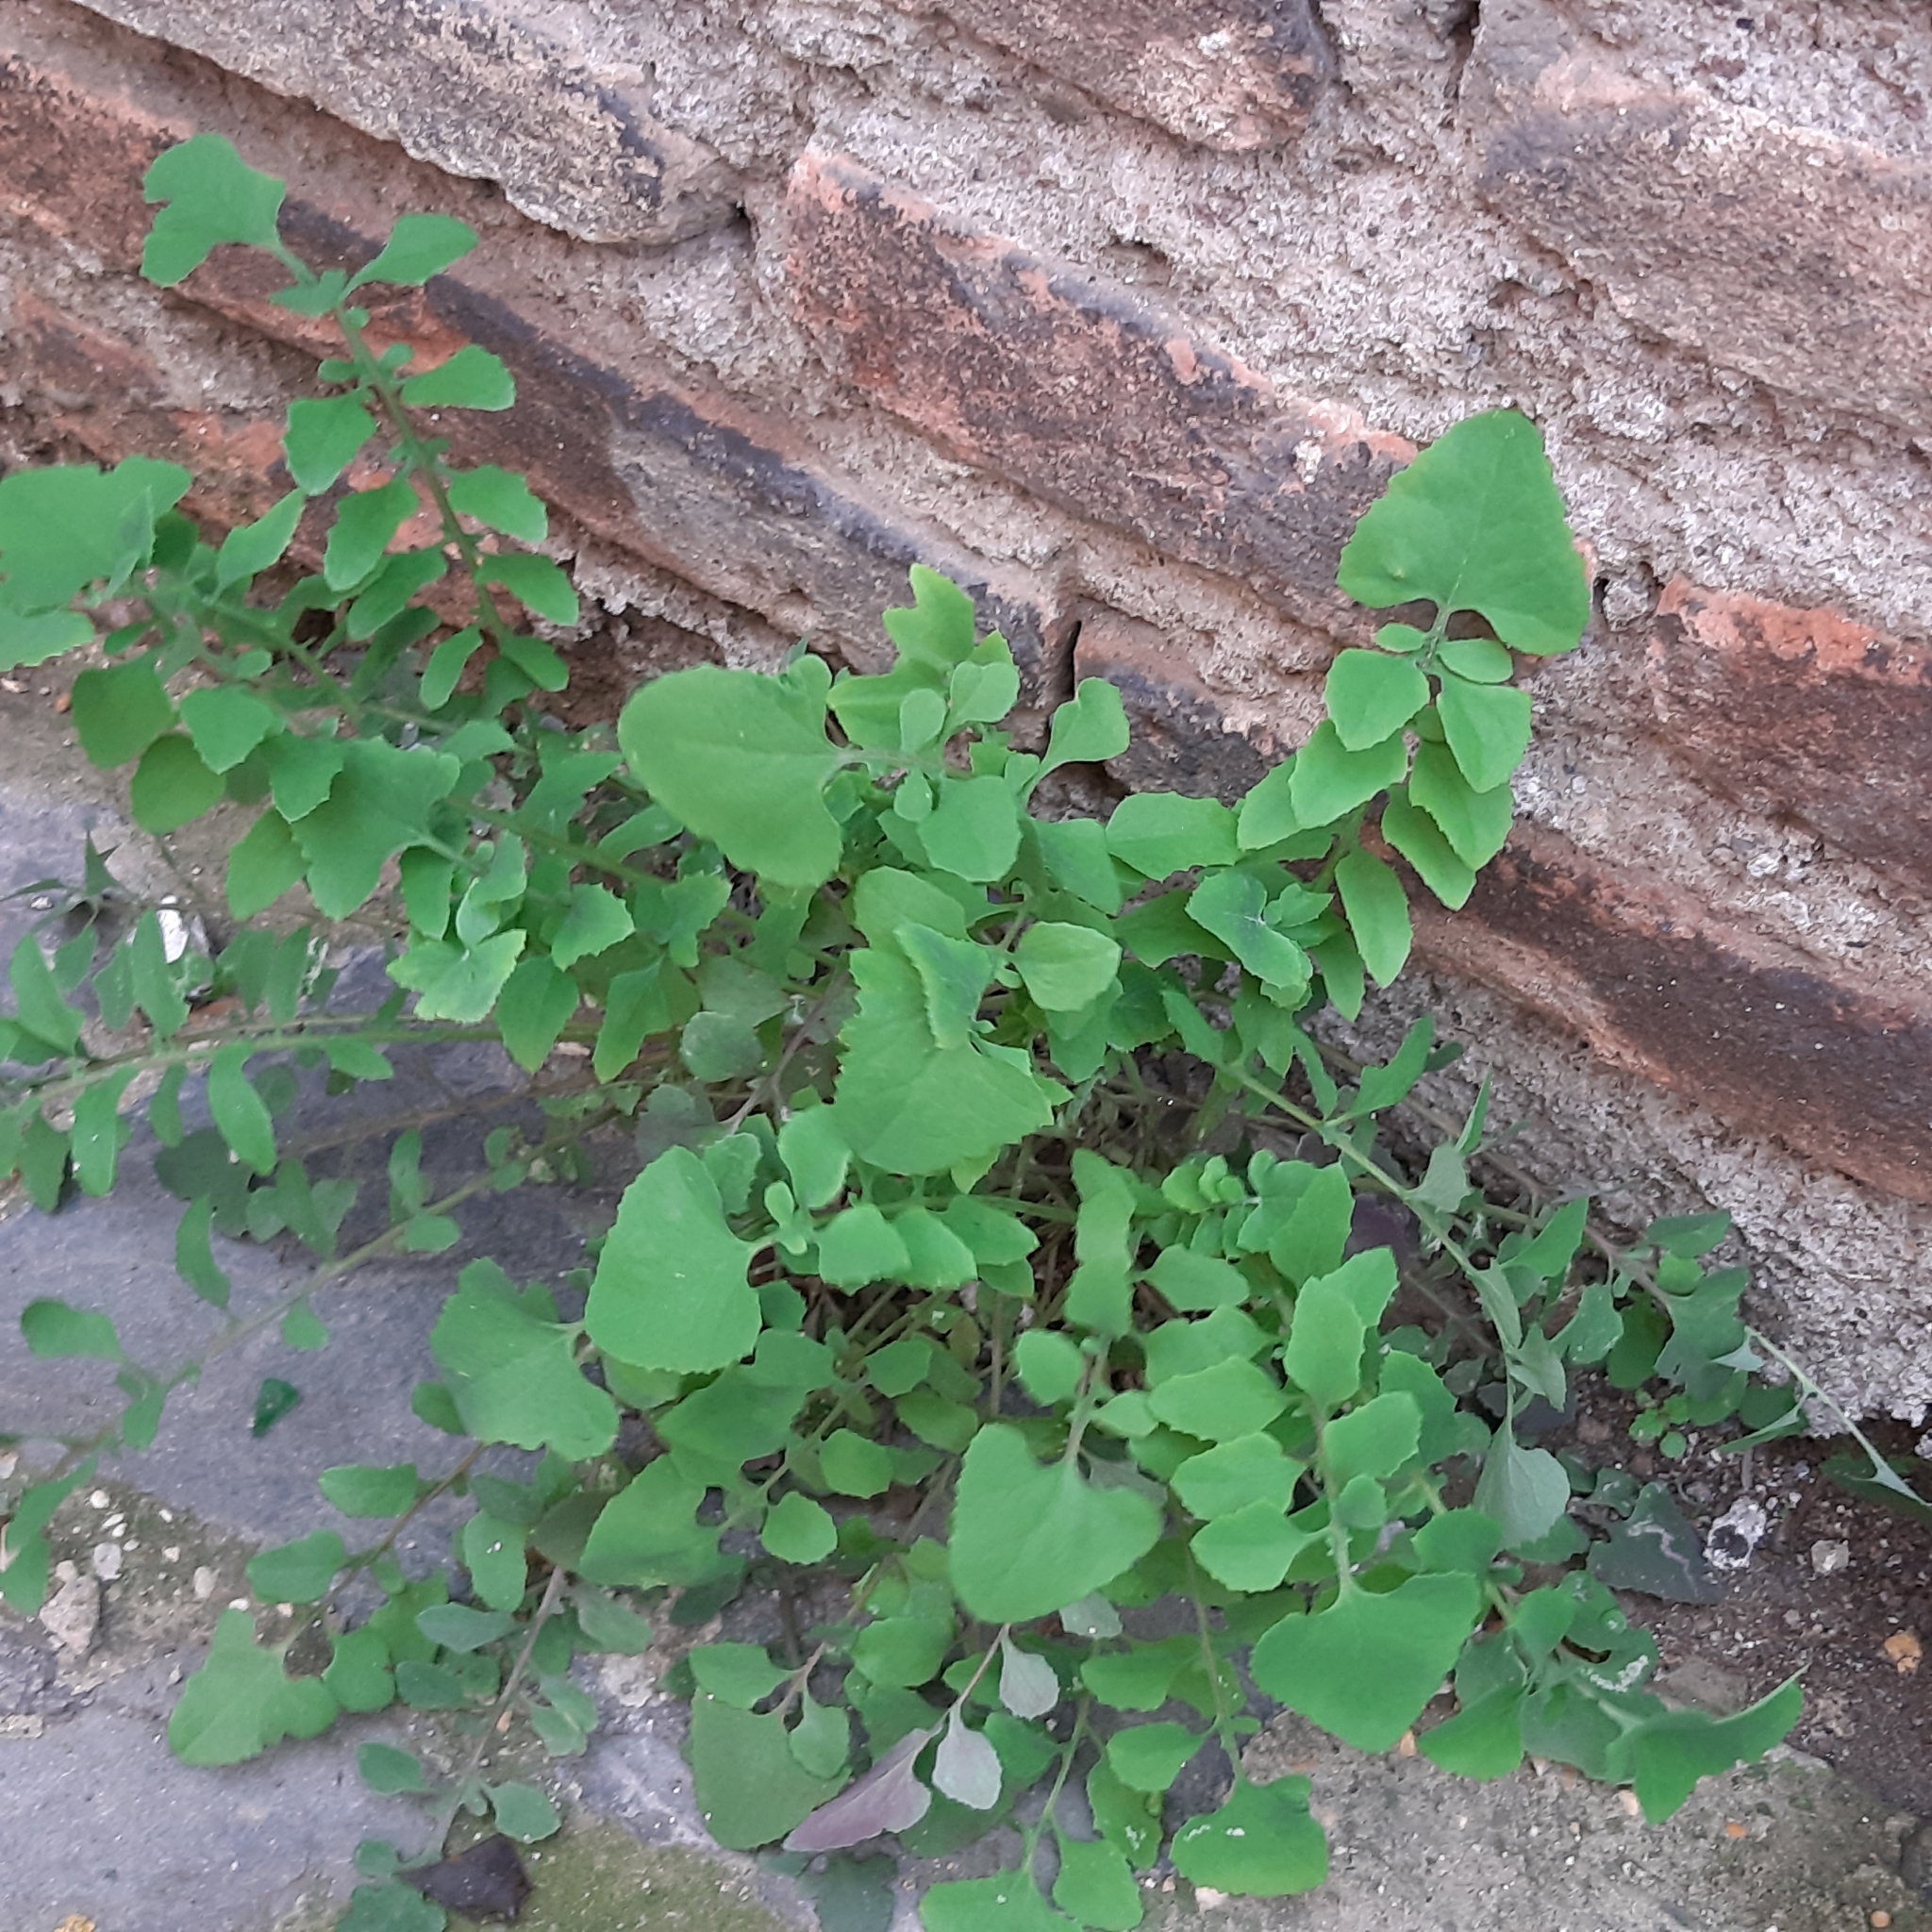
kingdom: Plantae
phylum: Tracheophyta
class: Magnoliopsida
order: Asterales
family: Asteraceae
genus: Sonchus
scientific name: Sonchus tenerrimus
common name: Clammy sowthistle
